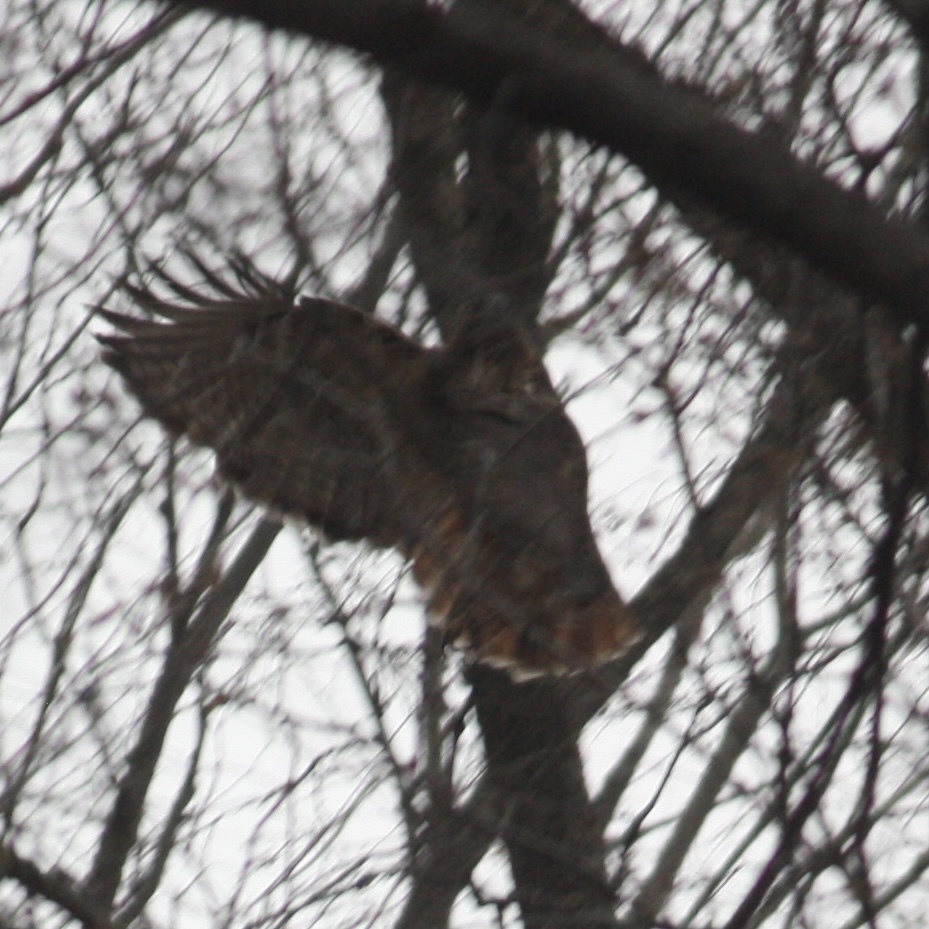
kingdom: Animalia
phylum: Chordata
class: Aves
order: Accipitriformes
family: Accipitridae
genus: Buteo
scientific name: Buteo jamaicensis
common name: Red-tailed hawk
